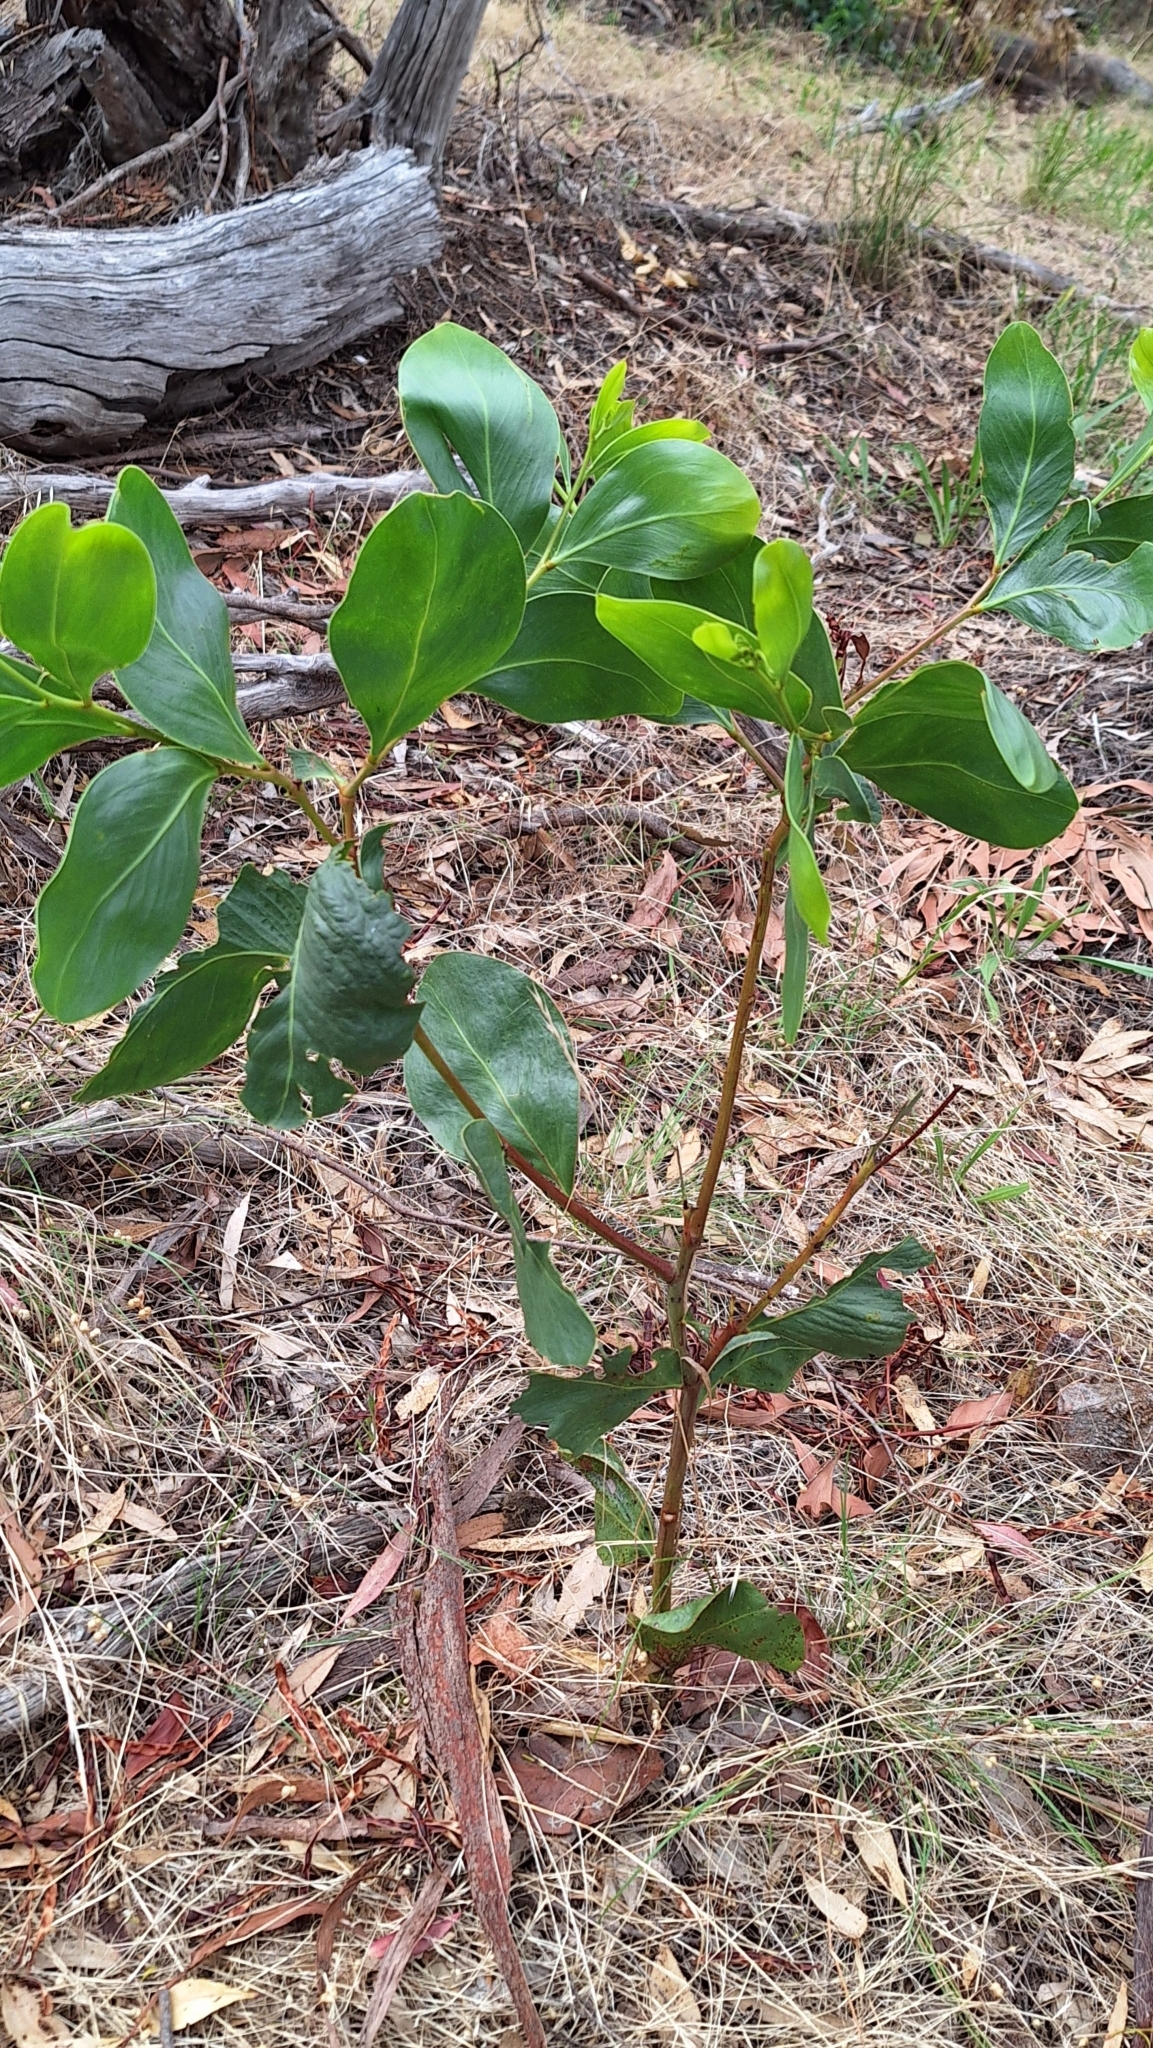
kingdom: Plantae
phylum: Tracheophyta
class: Magnoliopsida
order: Fabales
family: Fabaceae
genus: Acacia
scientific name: Acacia pycnantha
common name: Golden wattle
